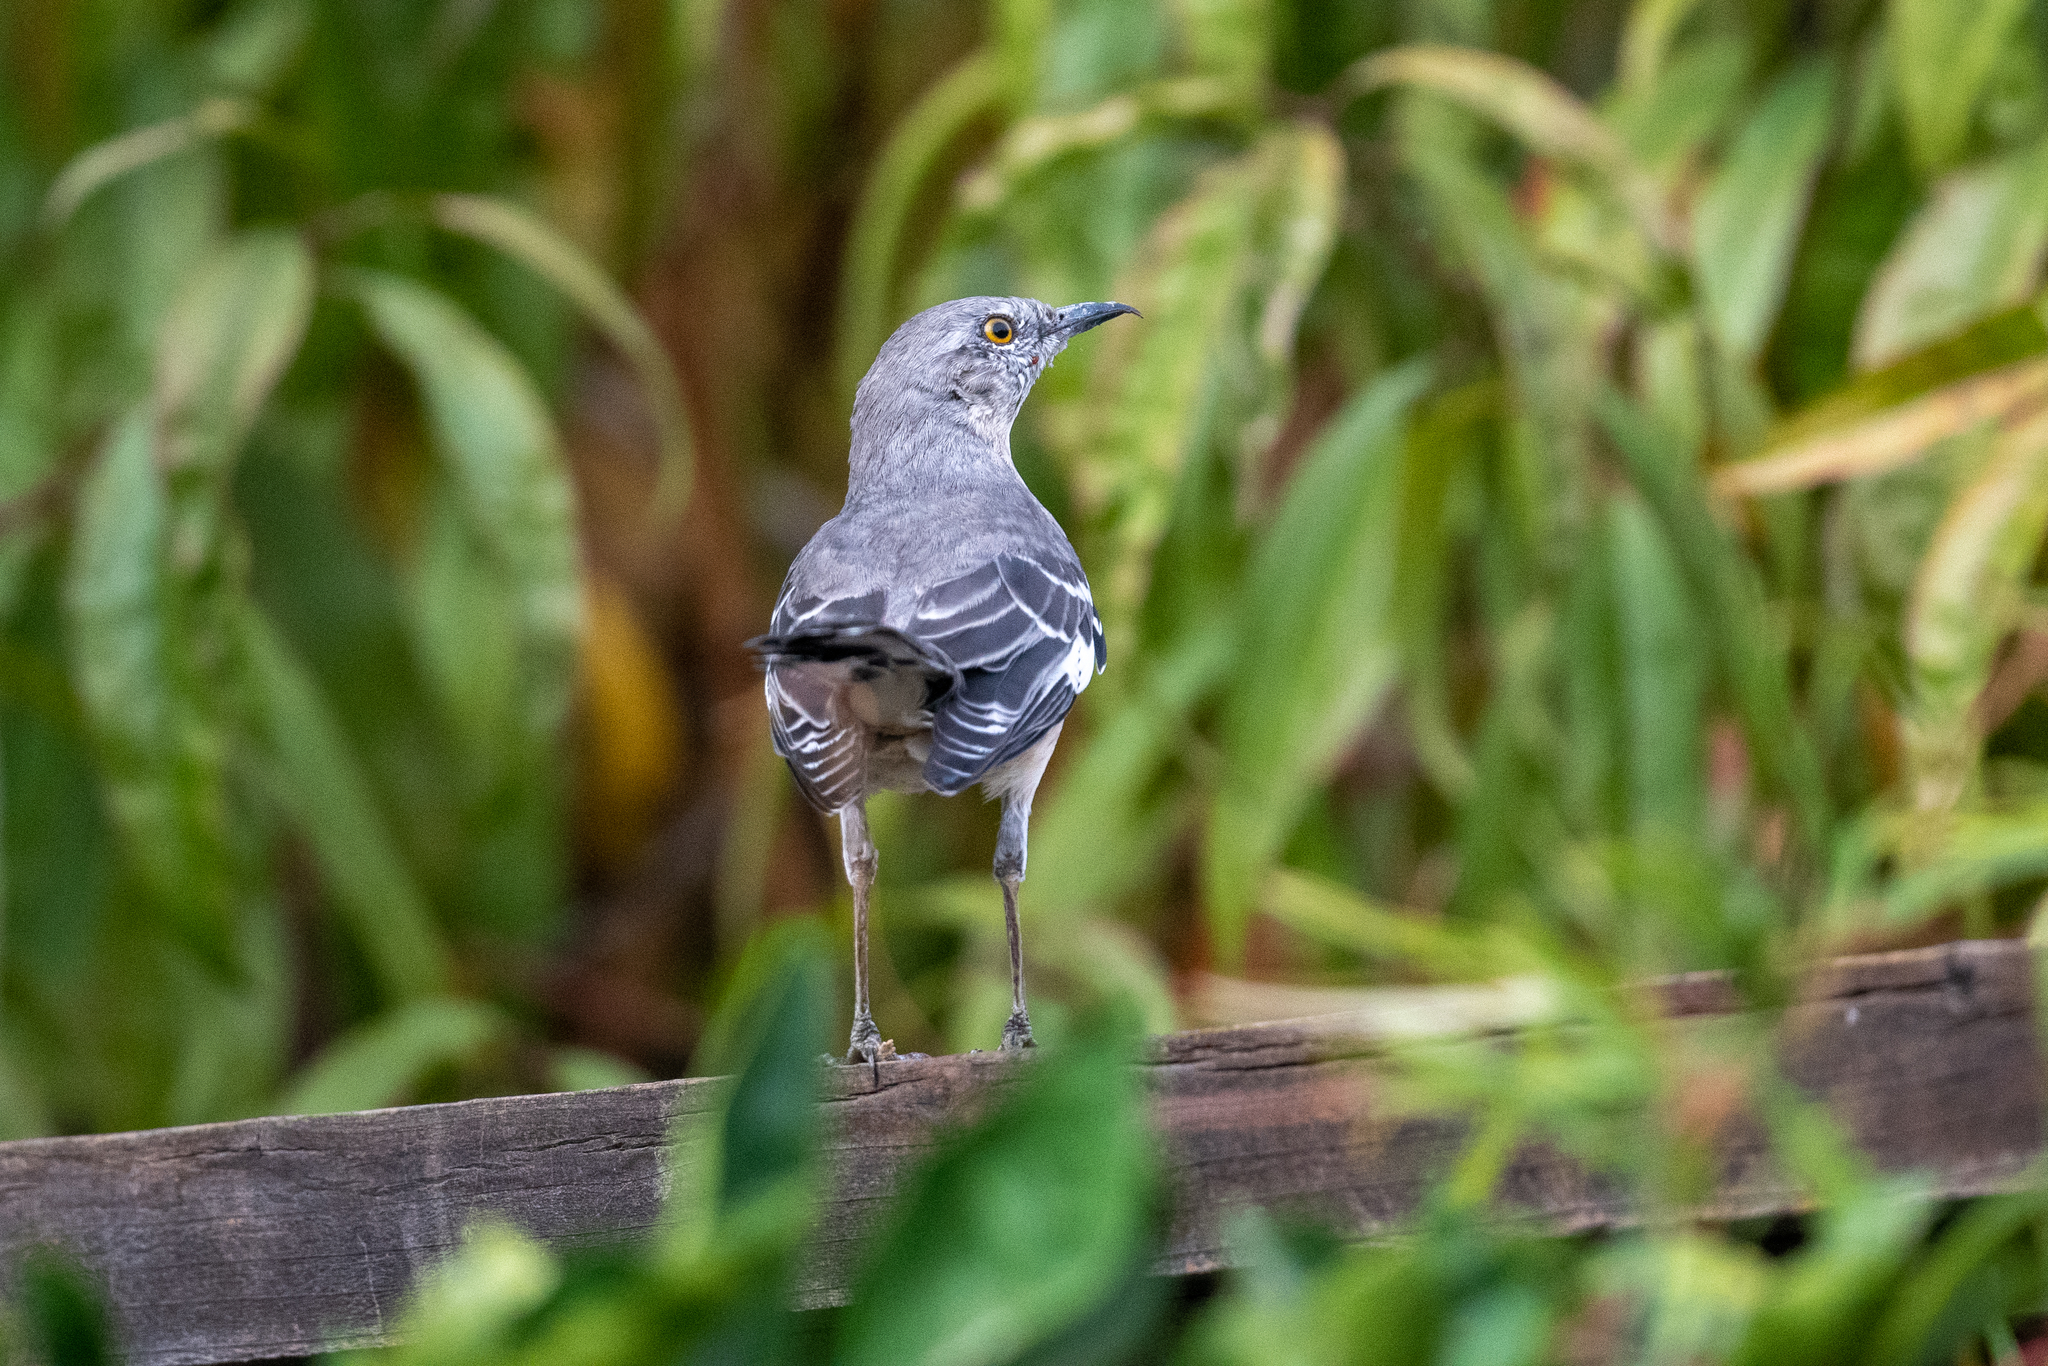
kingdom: Animalia
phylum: Chordata
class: Aves
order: Passeriformes
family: Mimidae
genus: Mimus
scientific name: Mimus polyglottos
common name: Northern mockingbird
